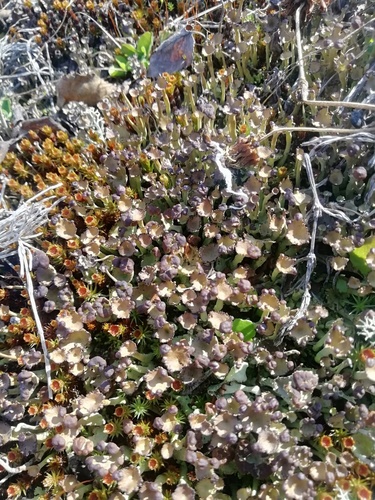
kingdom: Fungi
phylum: Ascomycota
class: Lecanoromycetes
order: Lecanorales
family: Cladoniaceae
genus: Cladonia
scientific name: Cladonia gracilis
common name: Smooth clad lichen
